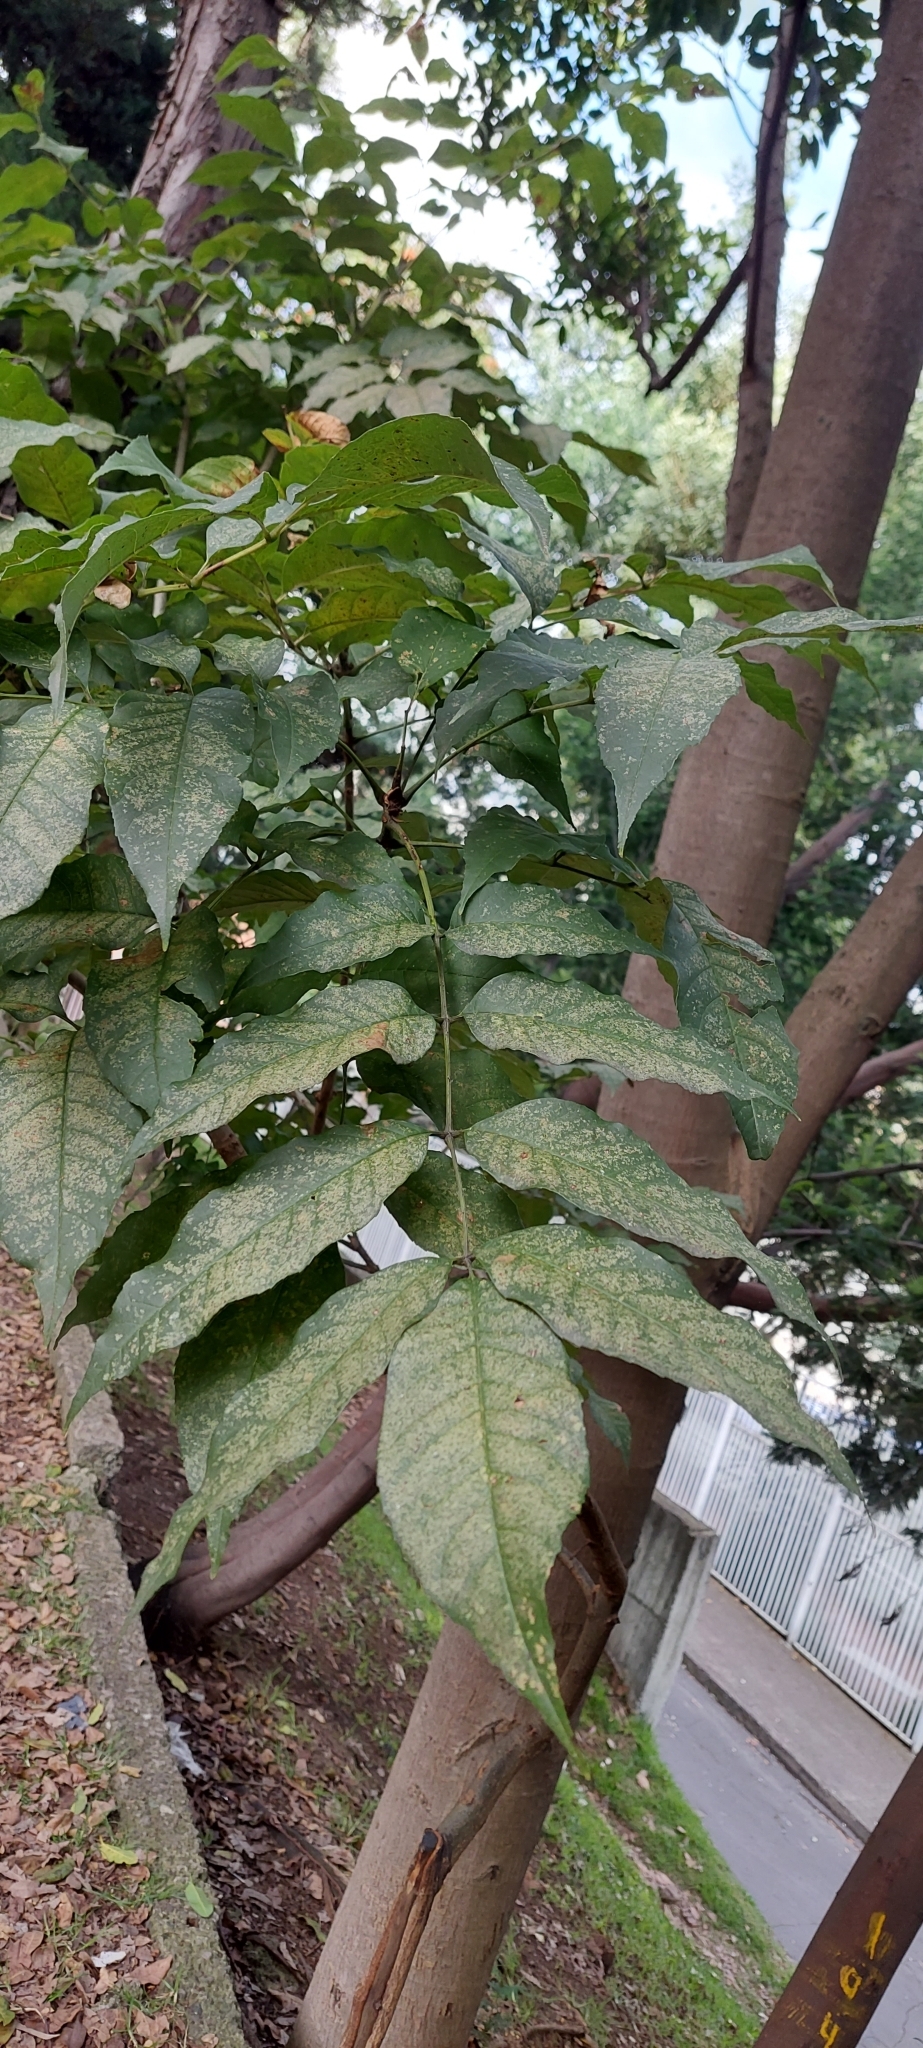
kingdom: Plantae
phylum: Tracheophyta
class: Magnoliopsida
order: Lamiales
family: Oleaceae
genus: Fraxinus
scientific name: Fraxinus uhdei
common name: Shamel ash
